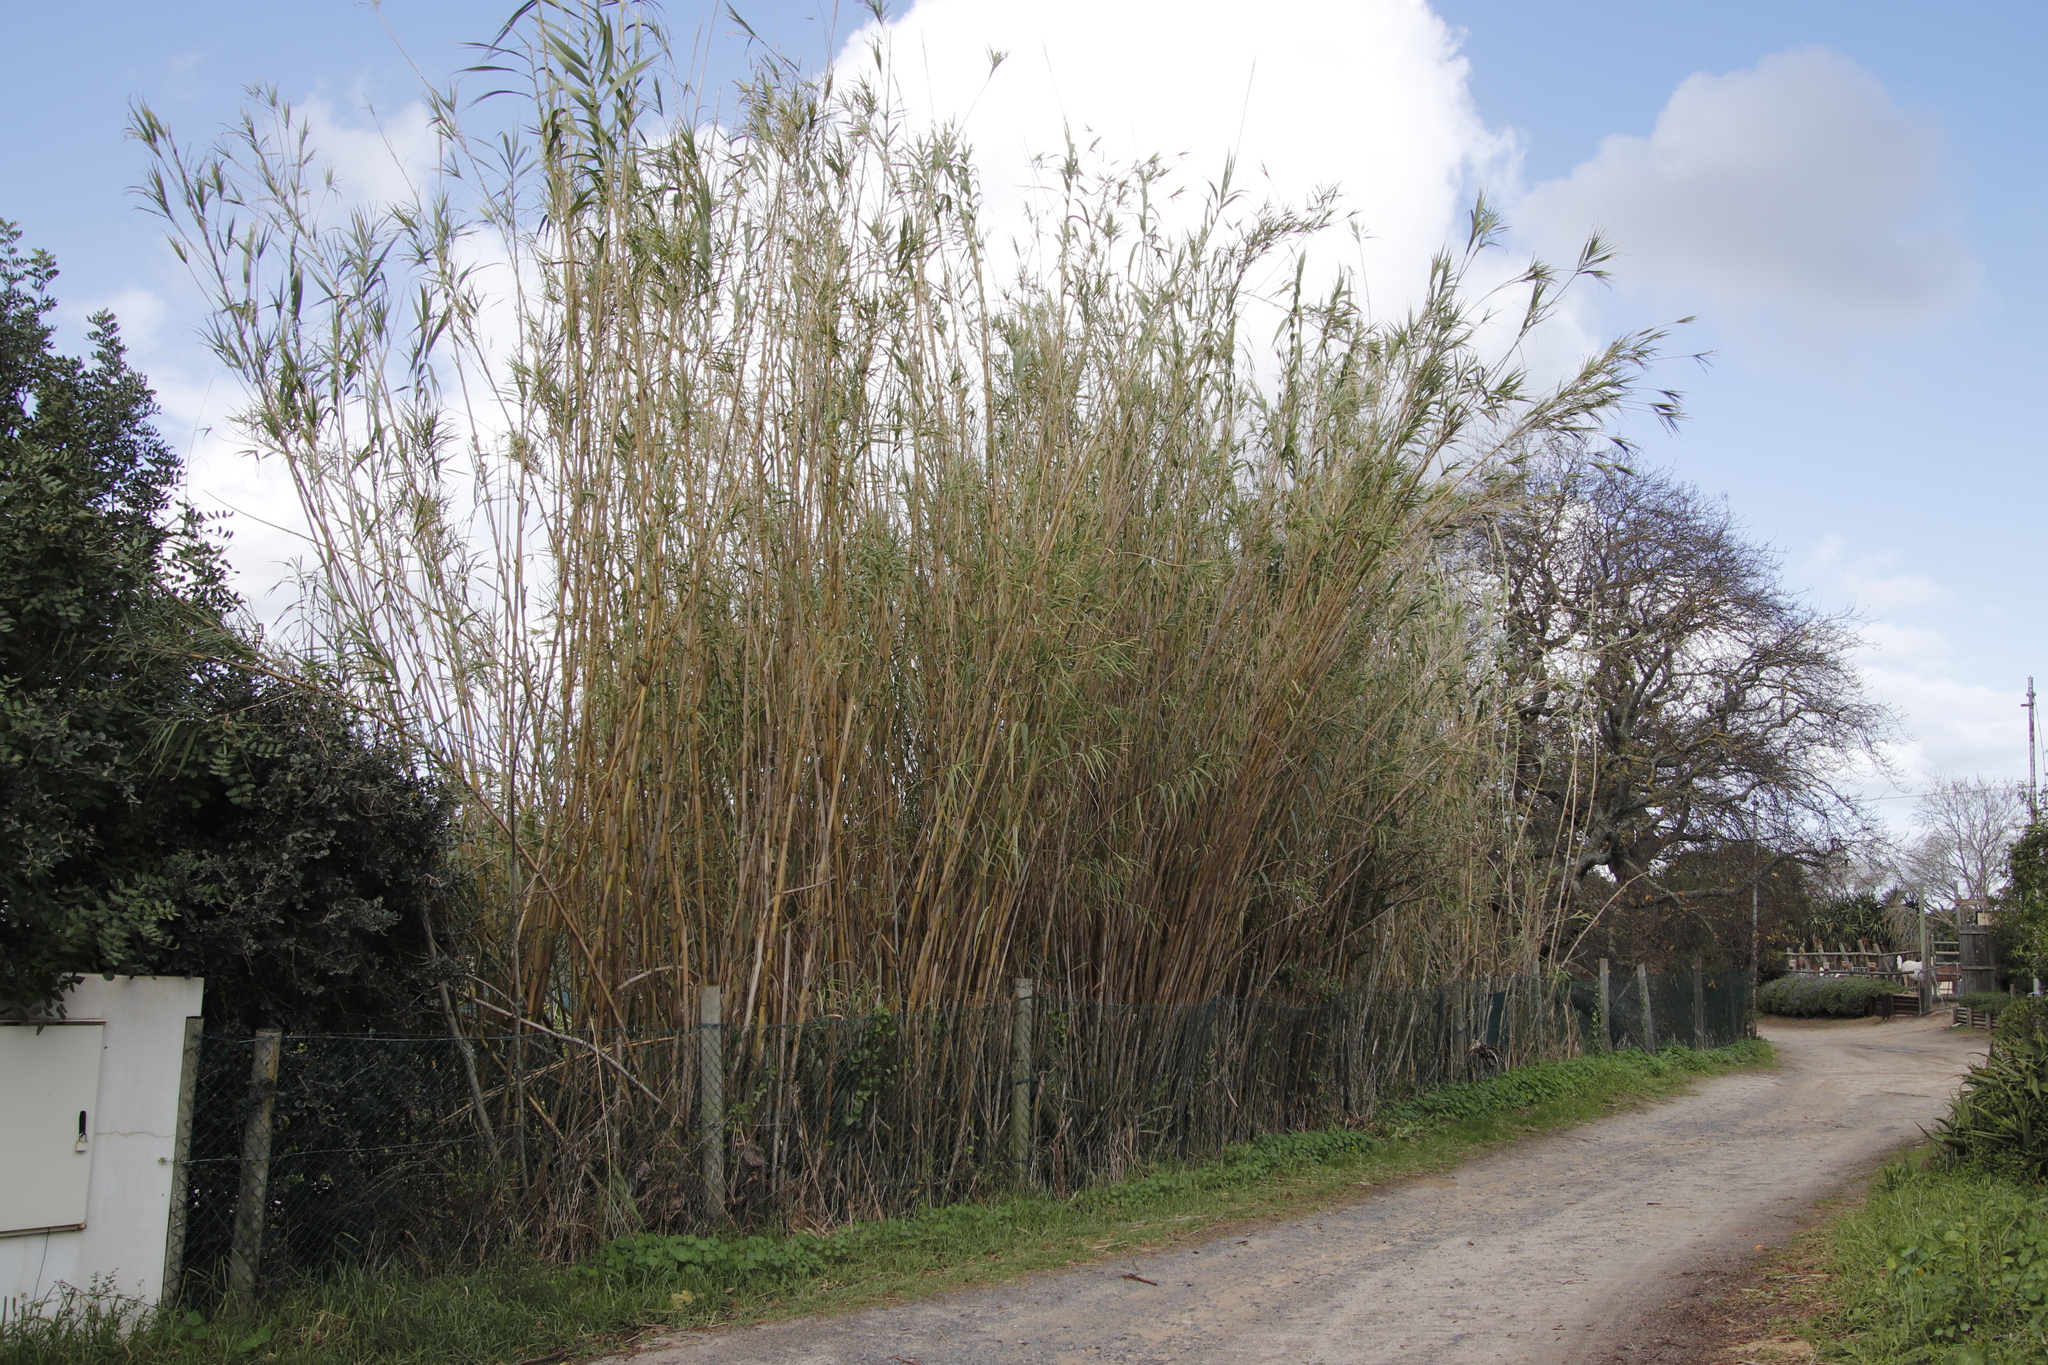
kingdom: Plantae
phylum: Tracheophyta
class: Liliopsida
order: Poales
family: Poaceae
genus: Arundo
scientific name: Arundo donax
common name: Giant reed
